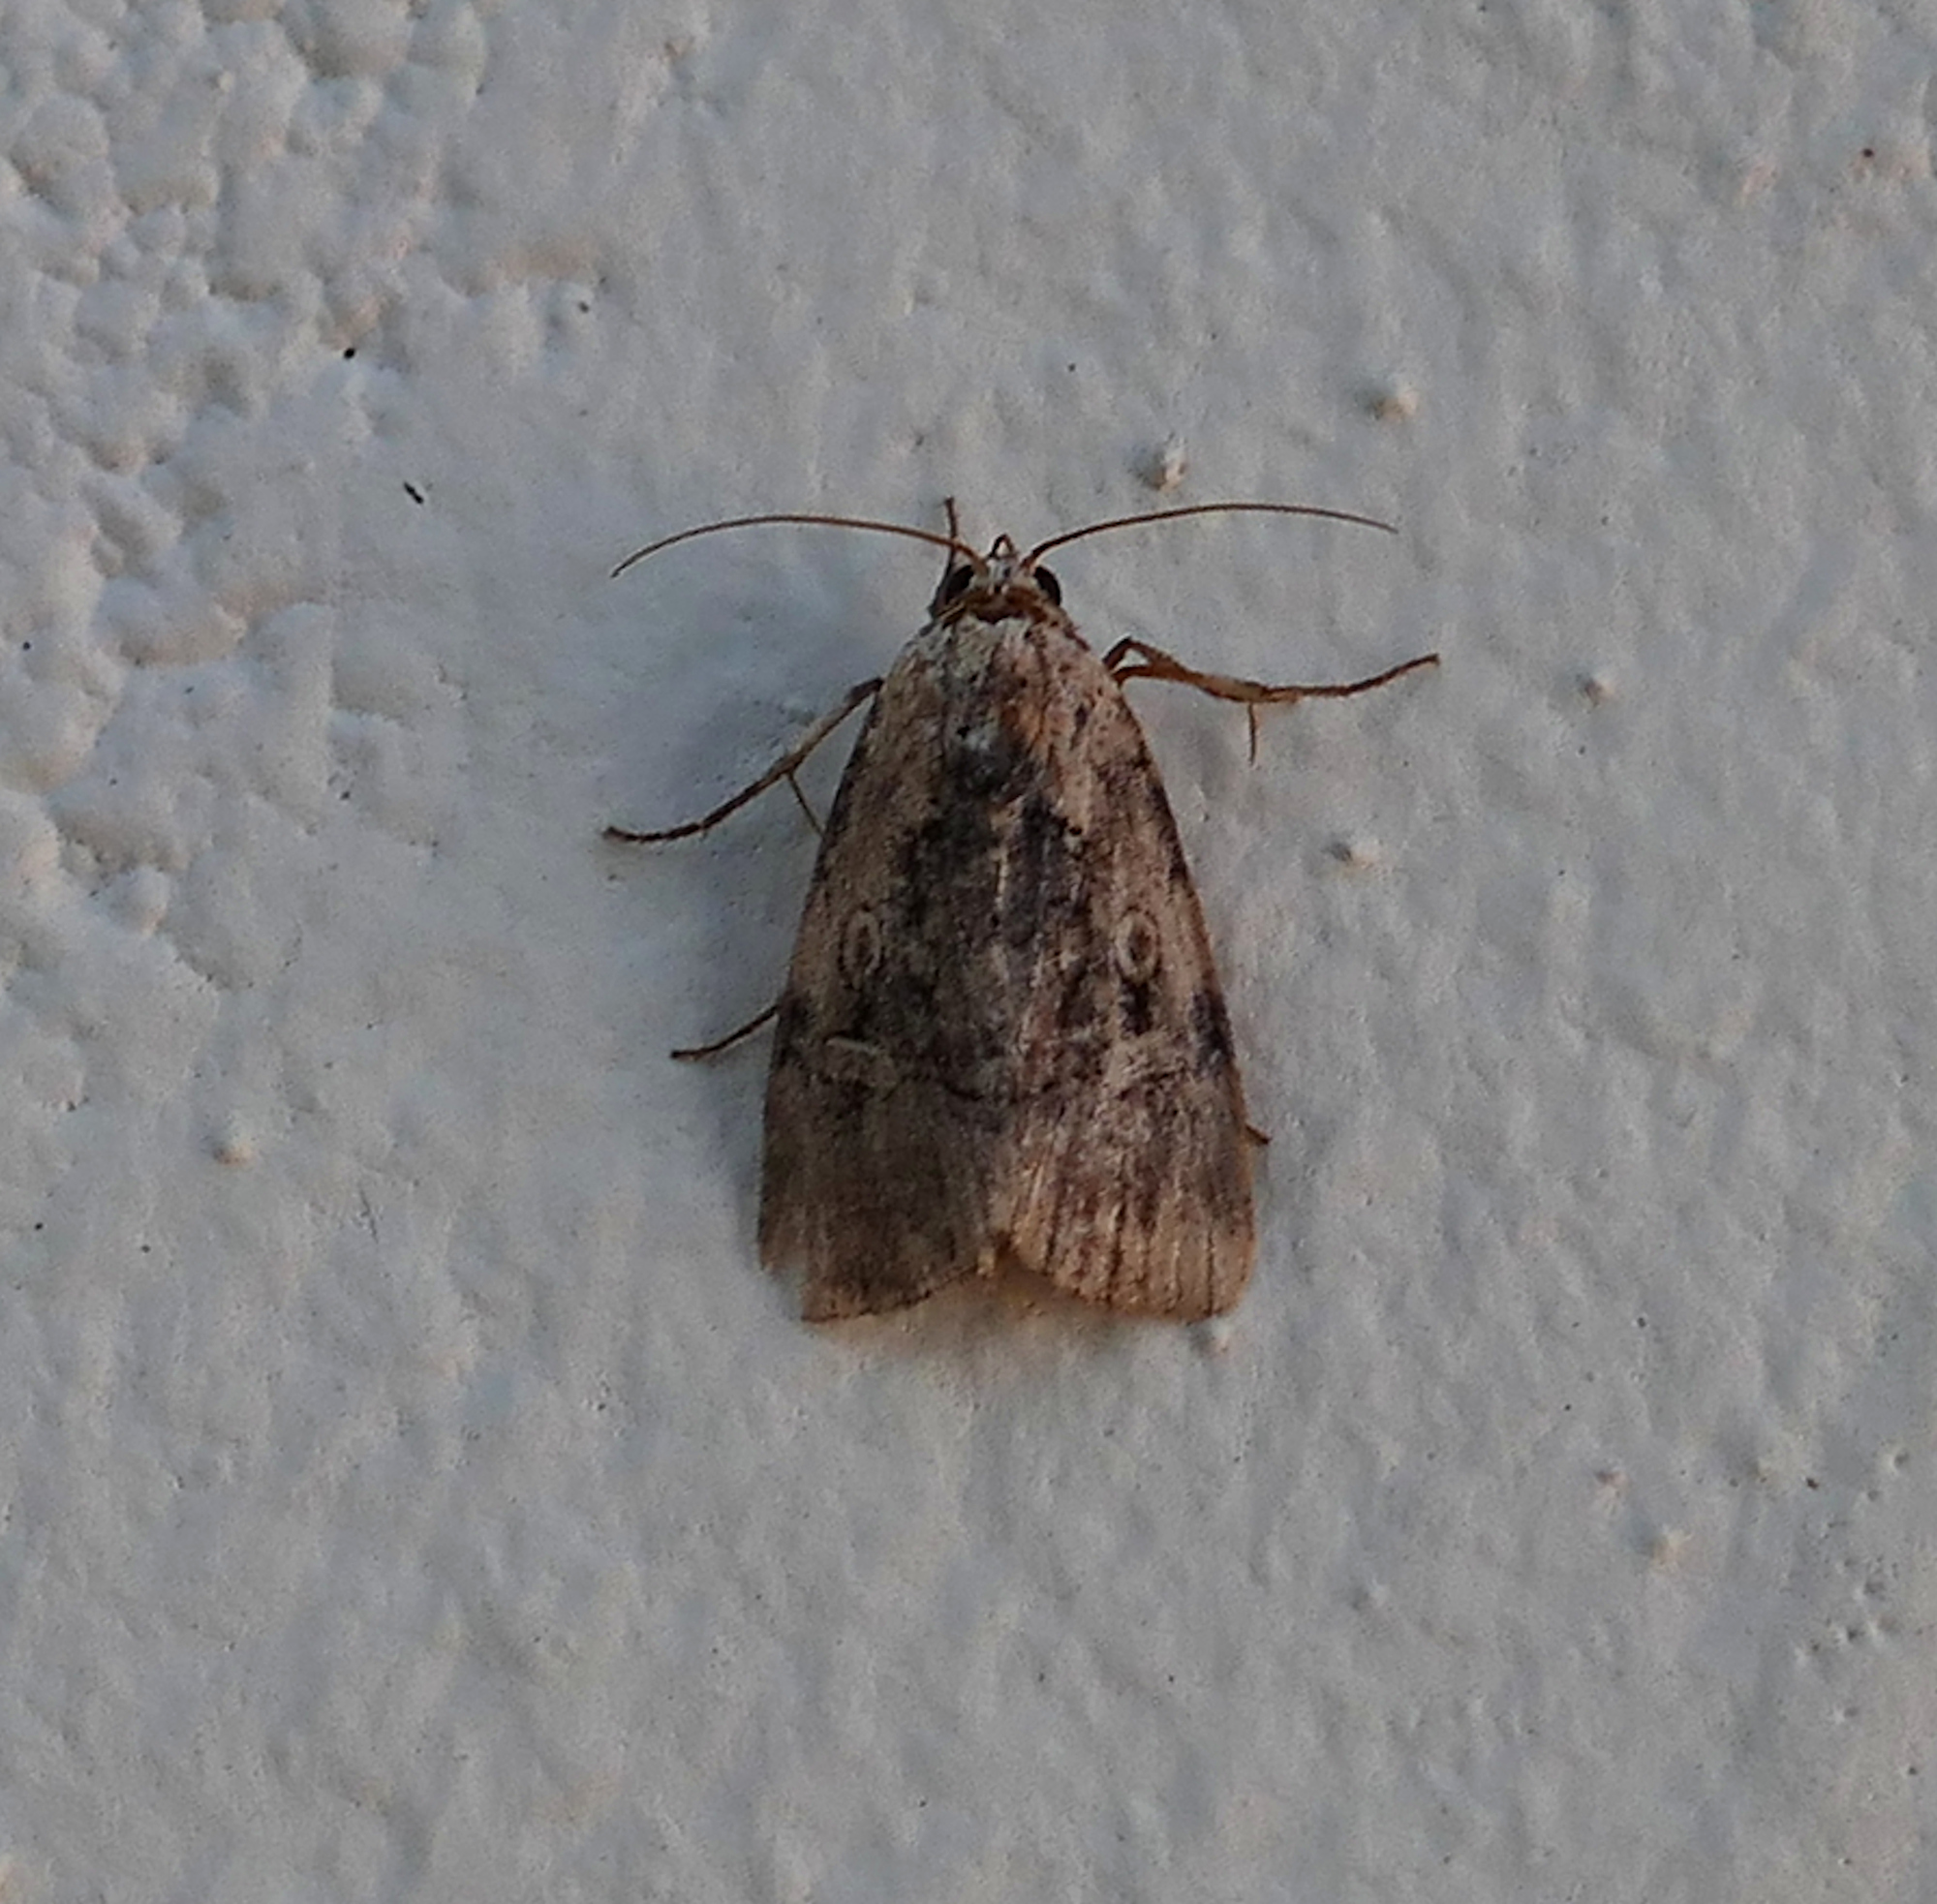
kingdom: Animalia
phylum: Arthropoda
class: Insecta
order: Lepidoptera
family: Noctuidae
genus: Elaphria
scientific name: Elaphria chalcedonia
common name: Chalcedony midget
